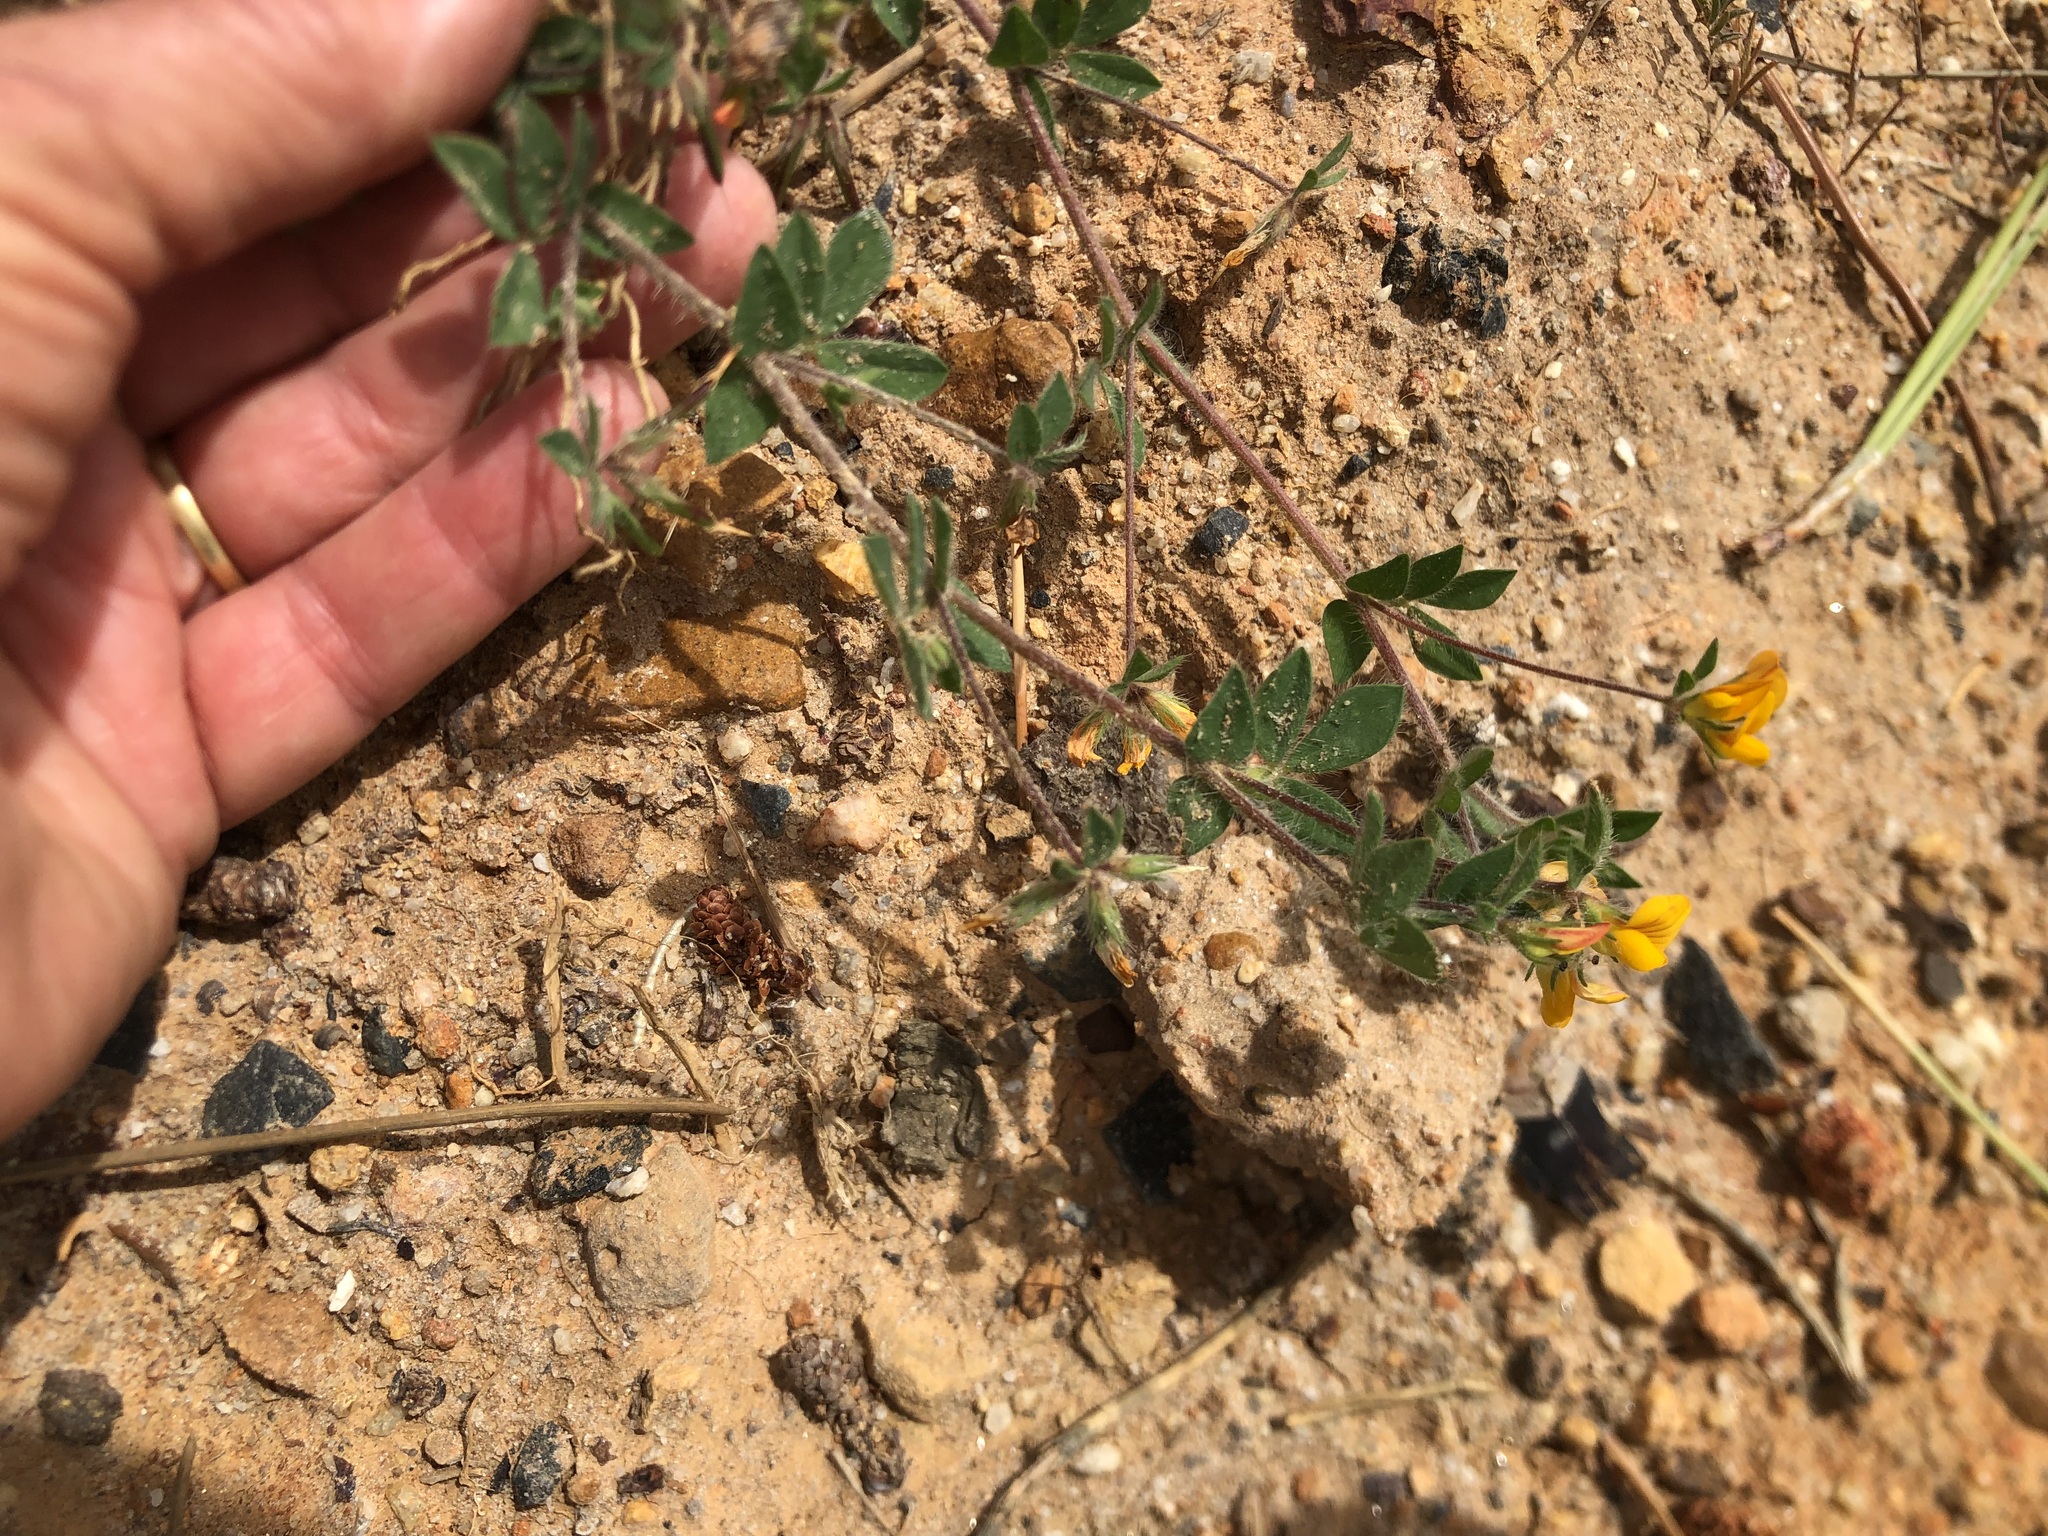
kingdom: Plantae
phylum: Tracheophyta
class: Magnoliopsida
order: Fabales
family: Fabaceae
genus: Lotus
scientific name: Lotus subbiflorus
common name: Hairy bird's-foot trefoil
